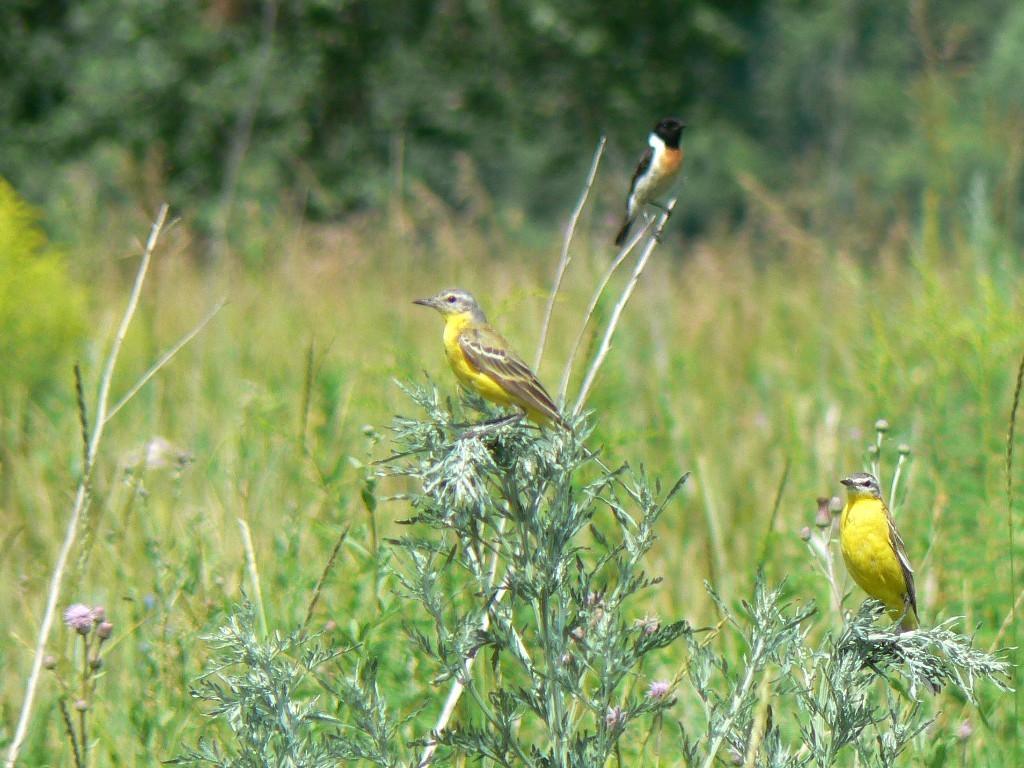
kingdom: Animalia
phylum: Chordata
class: Aves
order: Passeriformes
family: Motacillidae
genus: Motacilla
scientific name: Motacilla flava
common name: Western yellow wagtail
